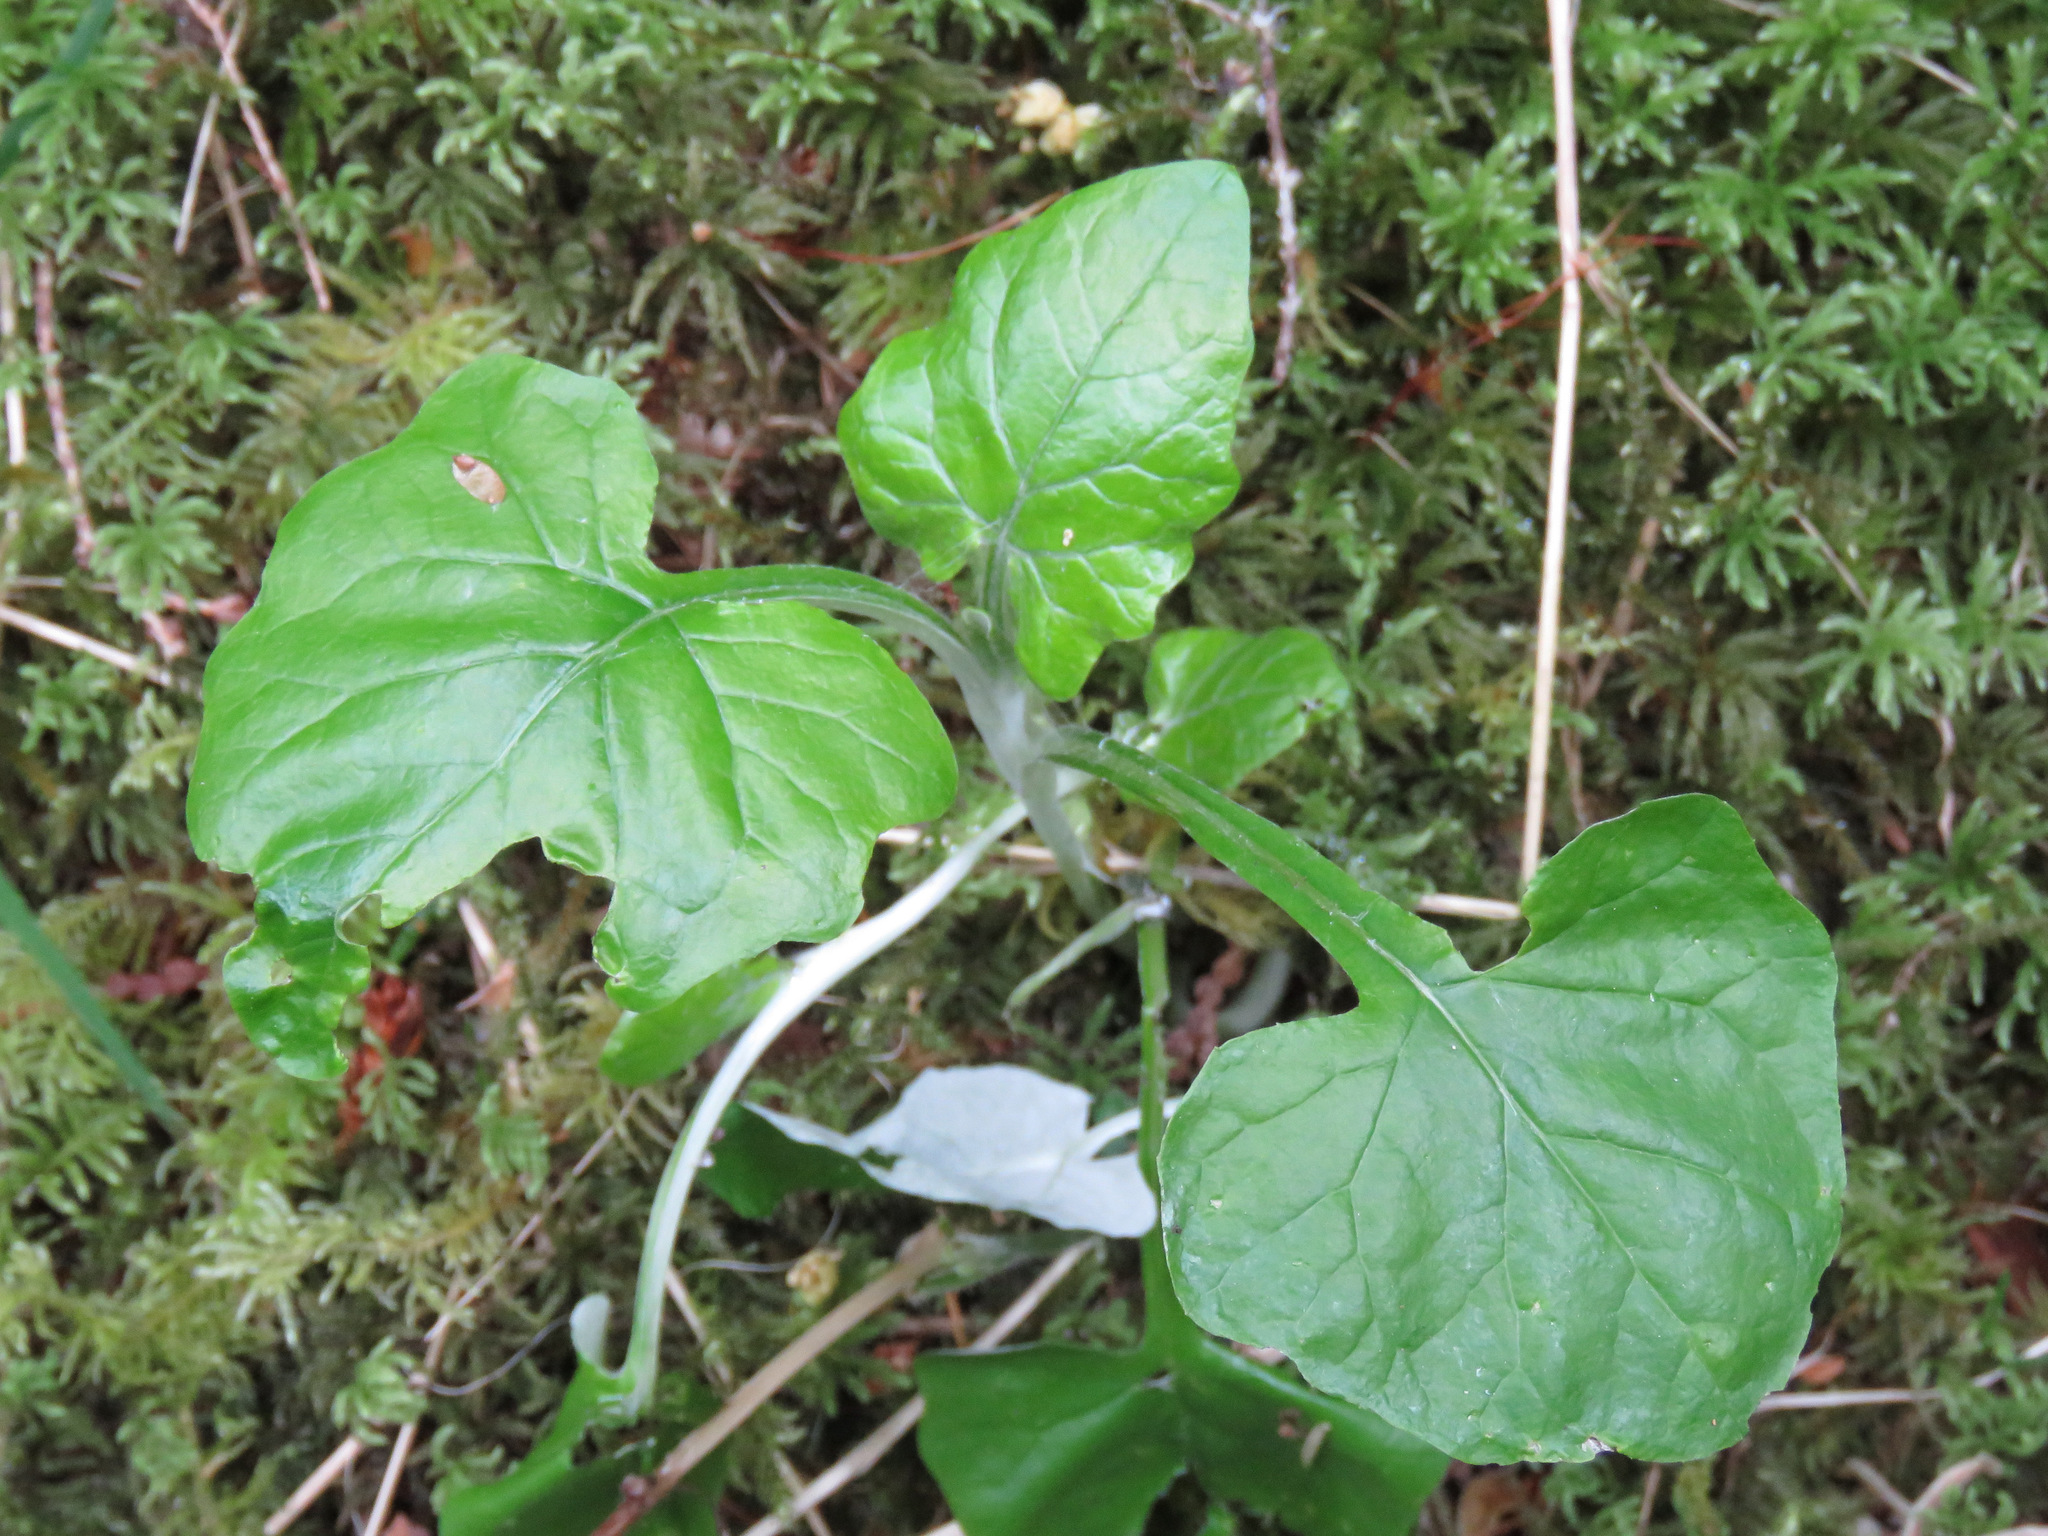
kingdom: Plantae
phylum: Tracheophyta
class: Magnoliopsida
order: Asterales
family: Asteraceae
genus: Adenocaulon
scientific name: Adenocaulon bicolor
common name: Trailplant
